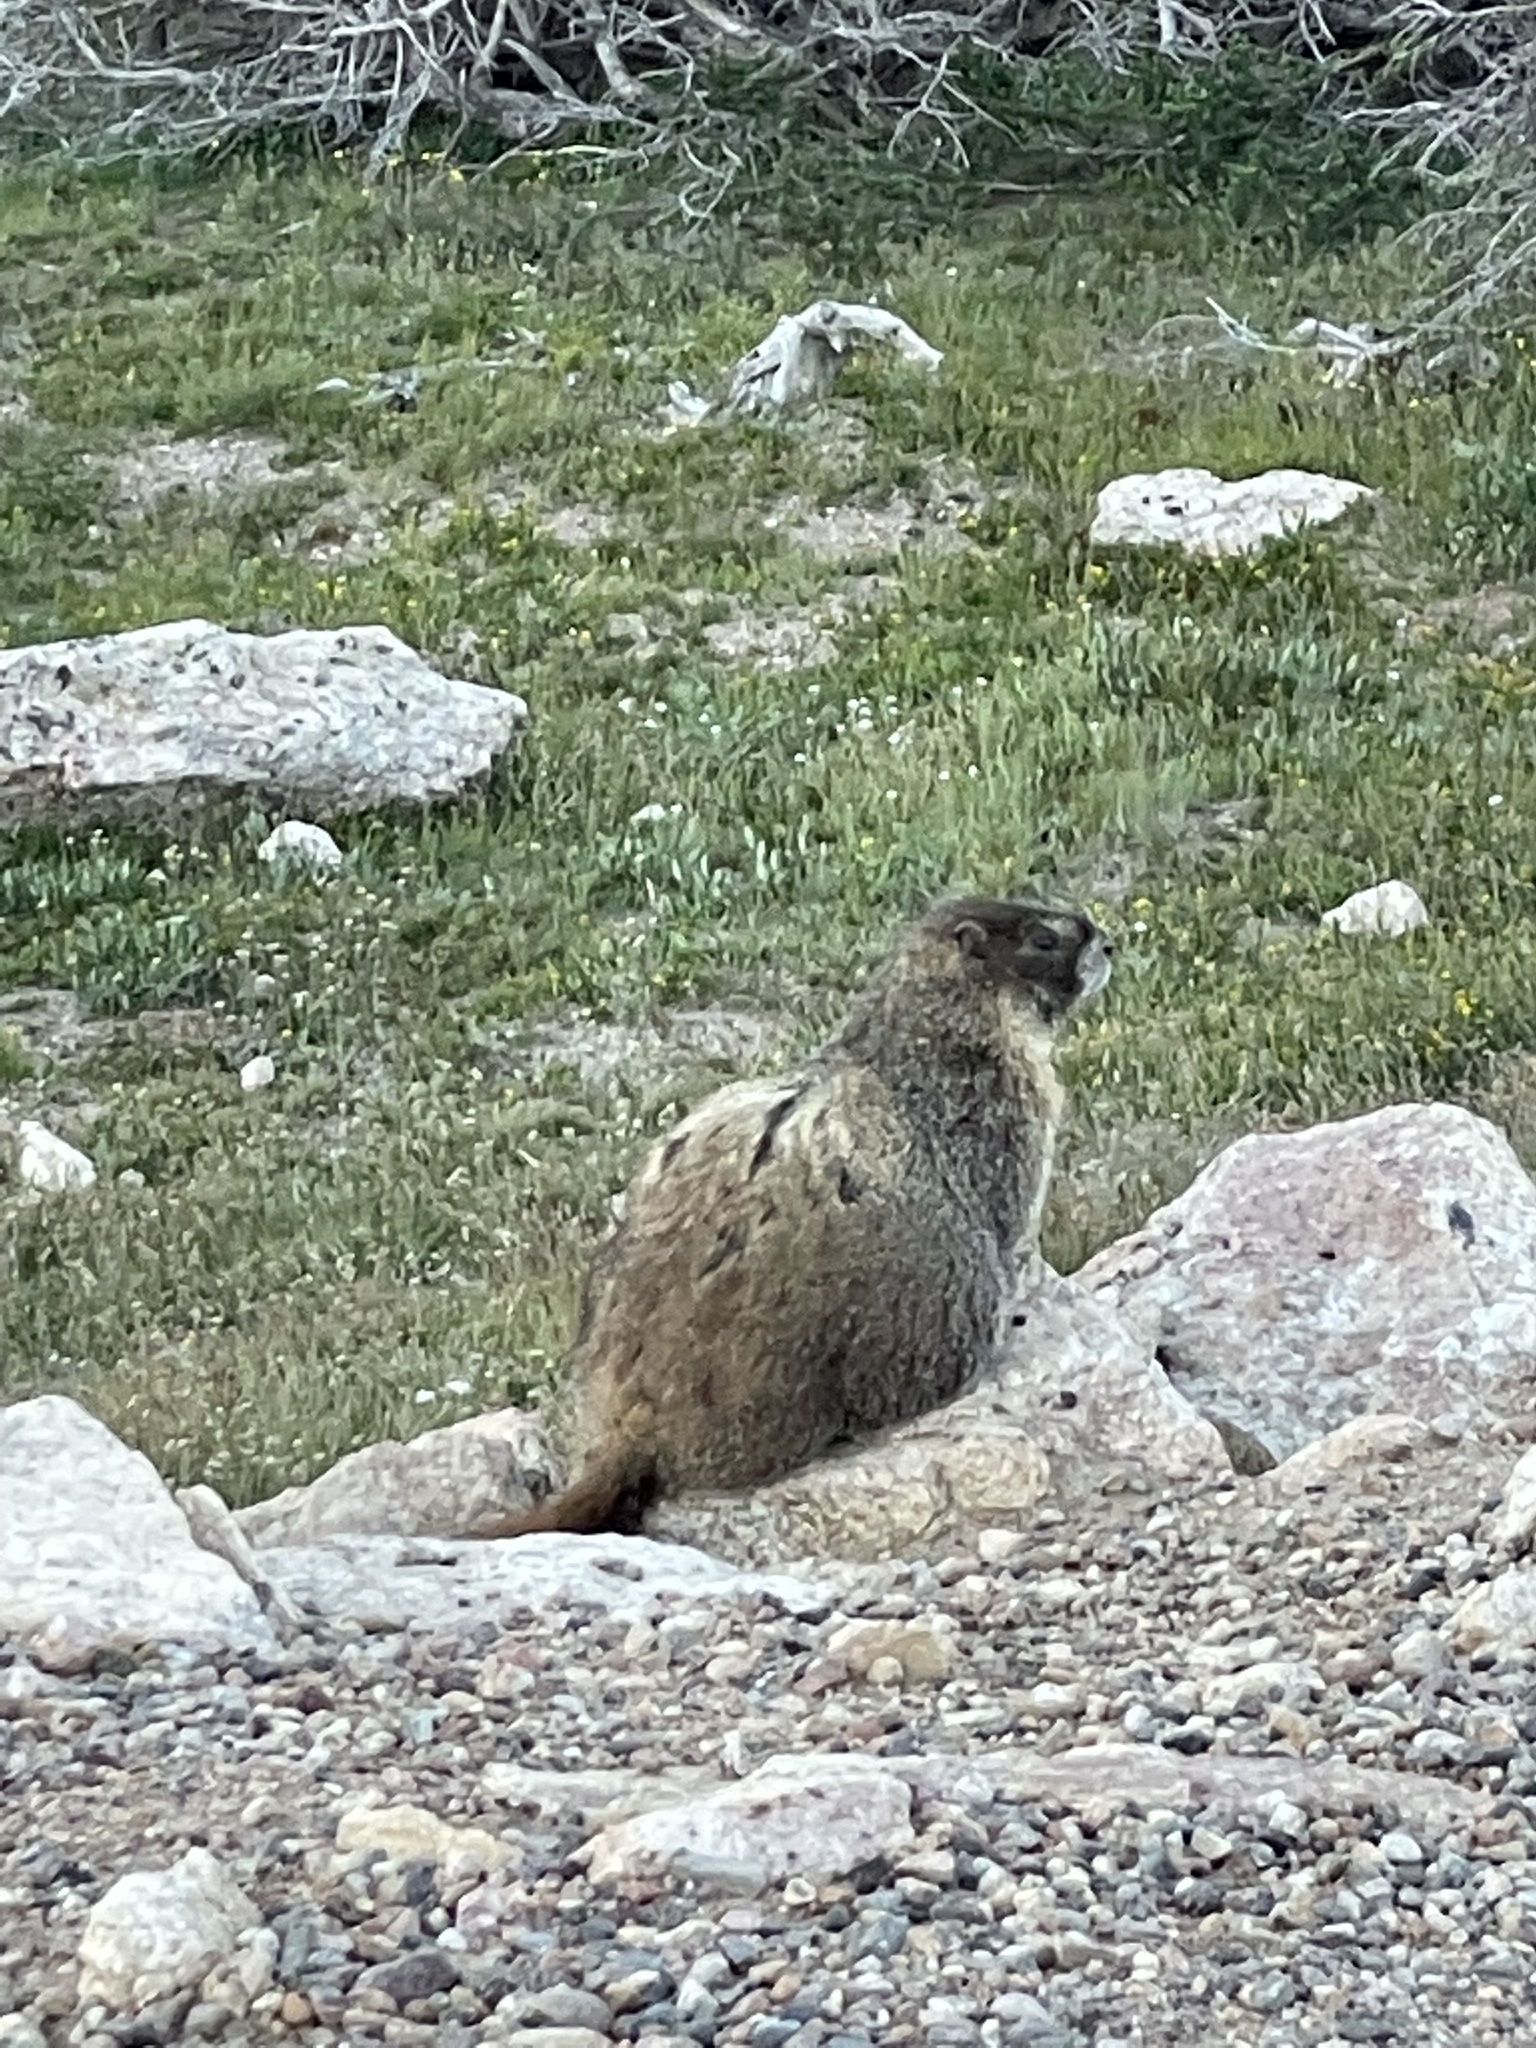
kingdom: Animalia
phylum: Chordata
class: Mammalia
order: Rodentia
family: Sciuridae
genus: Marmota
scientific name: Marmota flaviventris
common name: Yellow-bellied marmot
